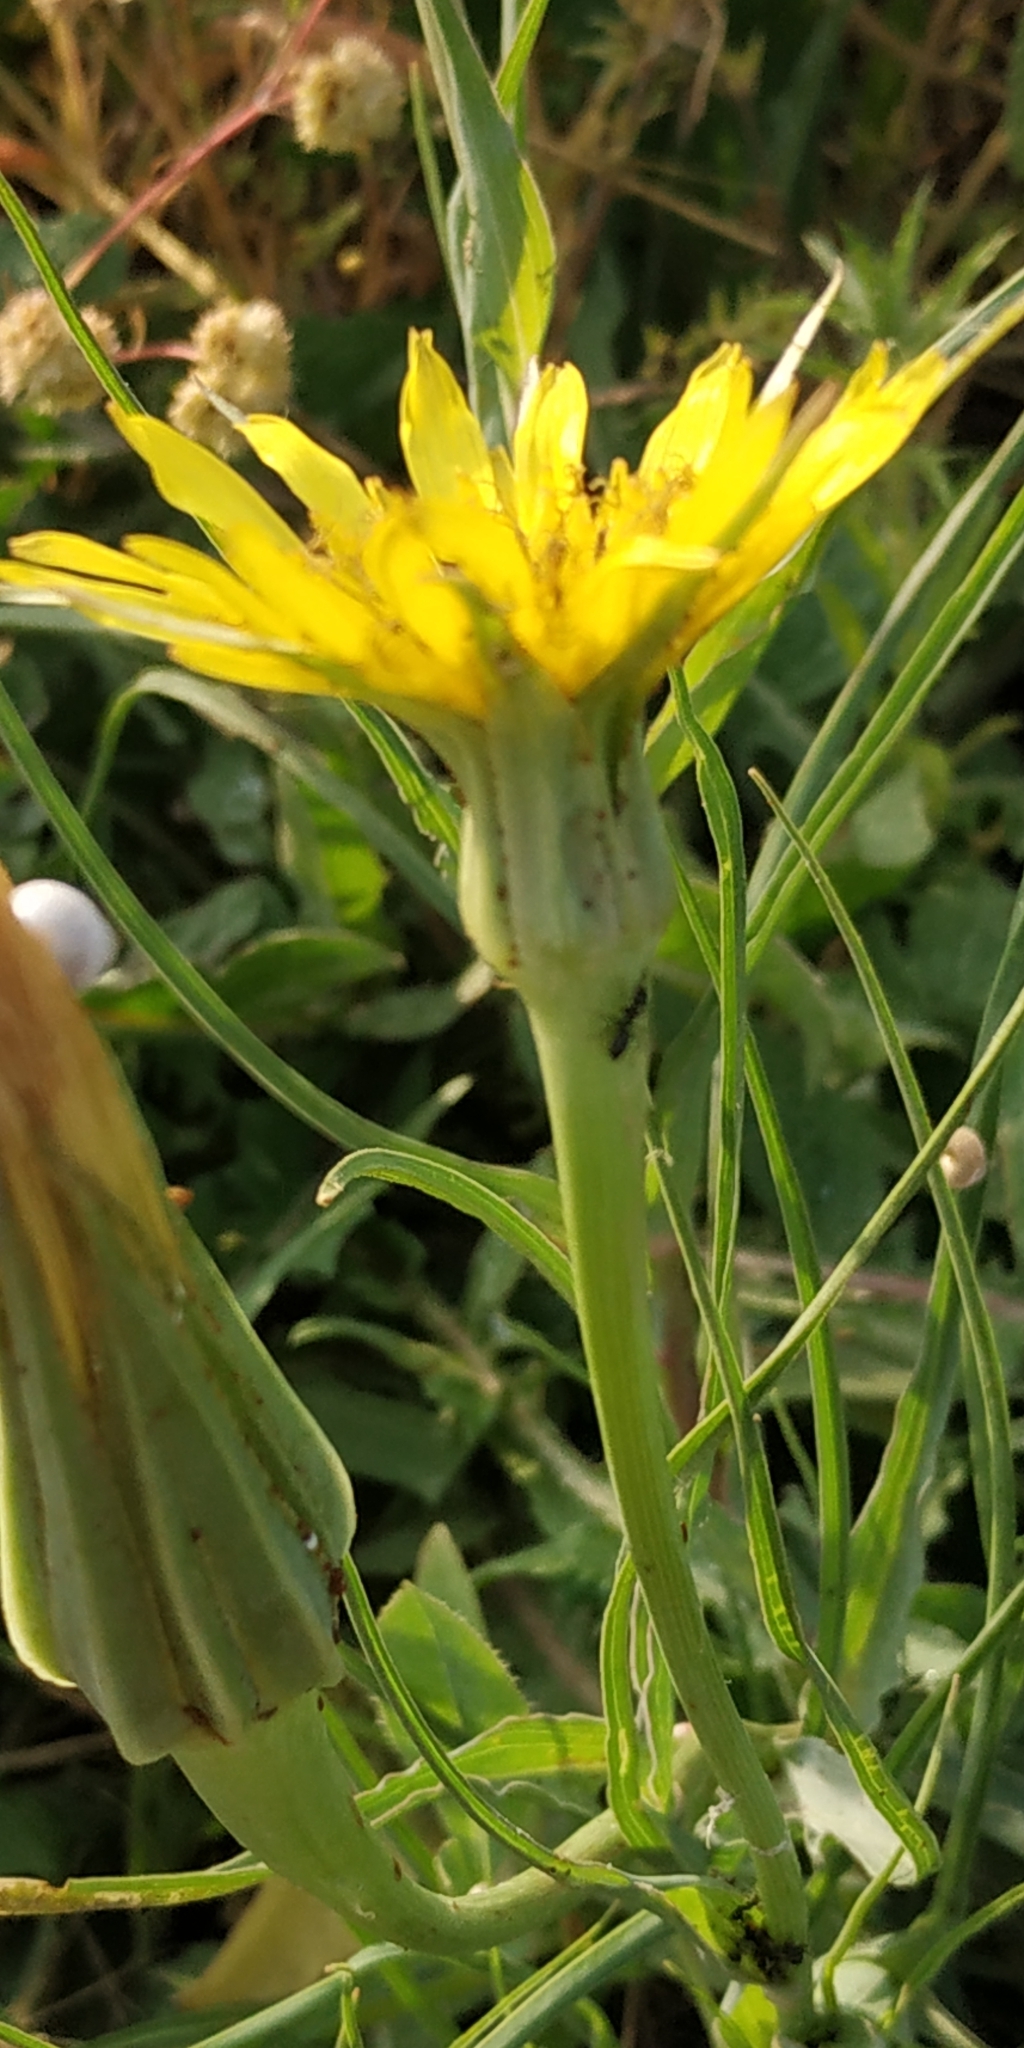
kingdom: Plantae
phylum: Tracheophyta
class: Magnoliopsida
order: Asterales
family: Asteraceae
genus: Tragopogon
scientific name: Tragopogon dubius
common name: Yellow salsify
